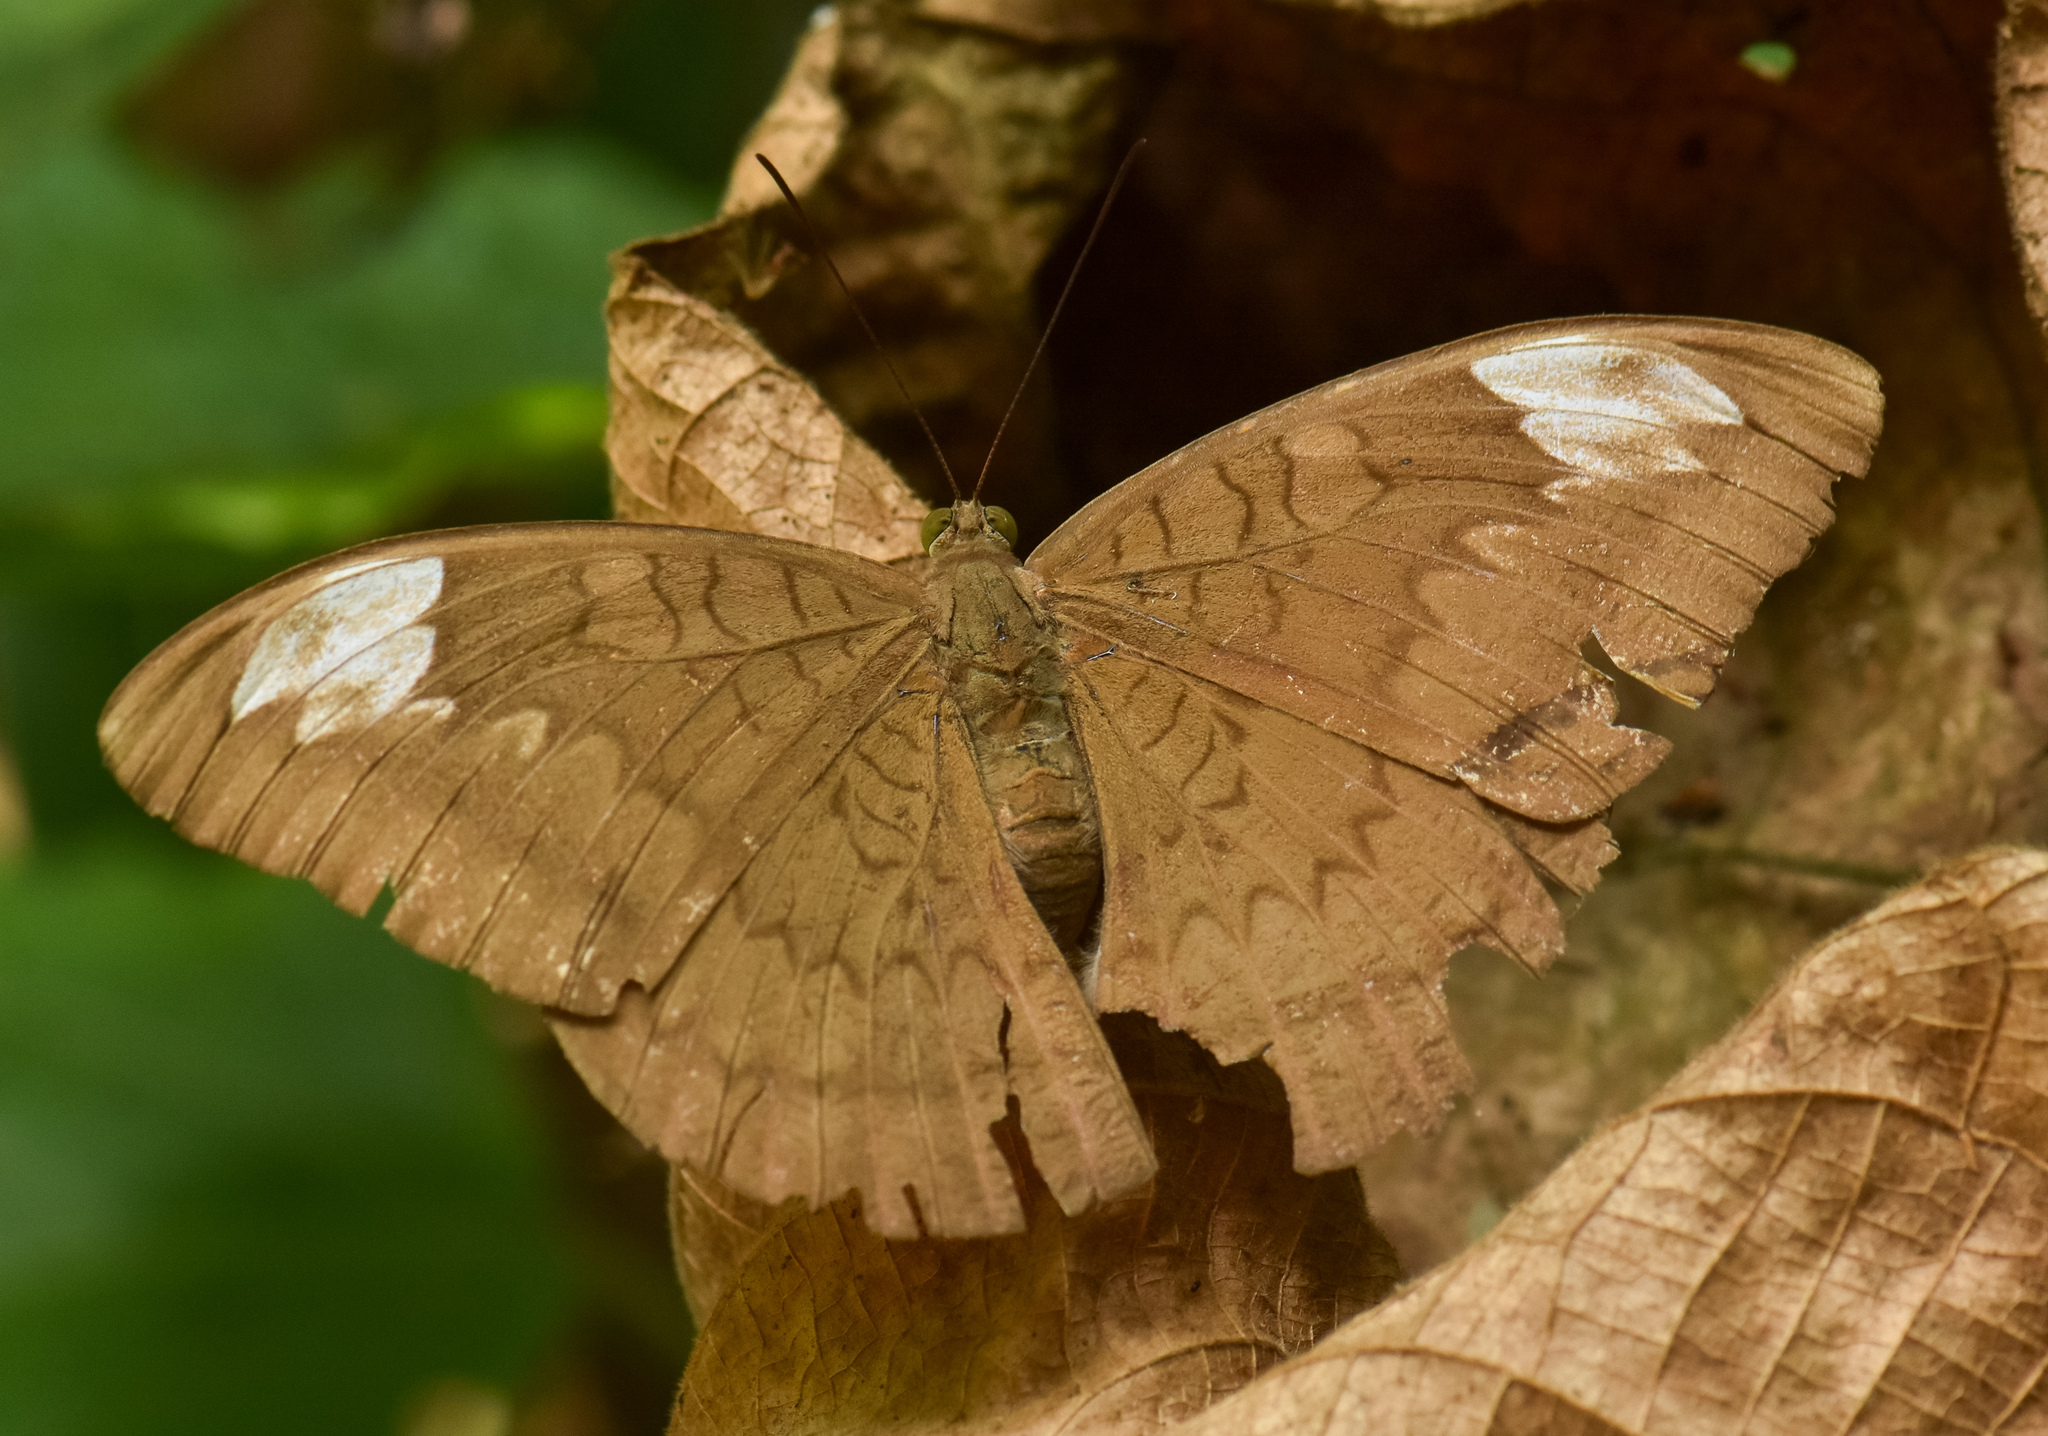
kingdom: Animalia
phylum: Arthropoda
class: Insecta
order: Lepidoptera
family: Nymphalidae
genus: Tanaecia
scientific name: Tanaecia julii
